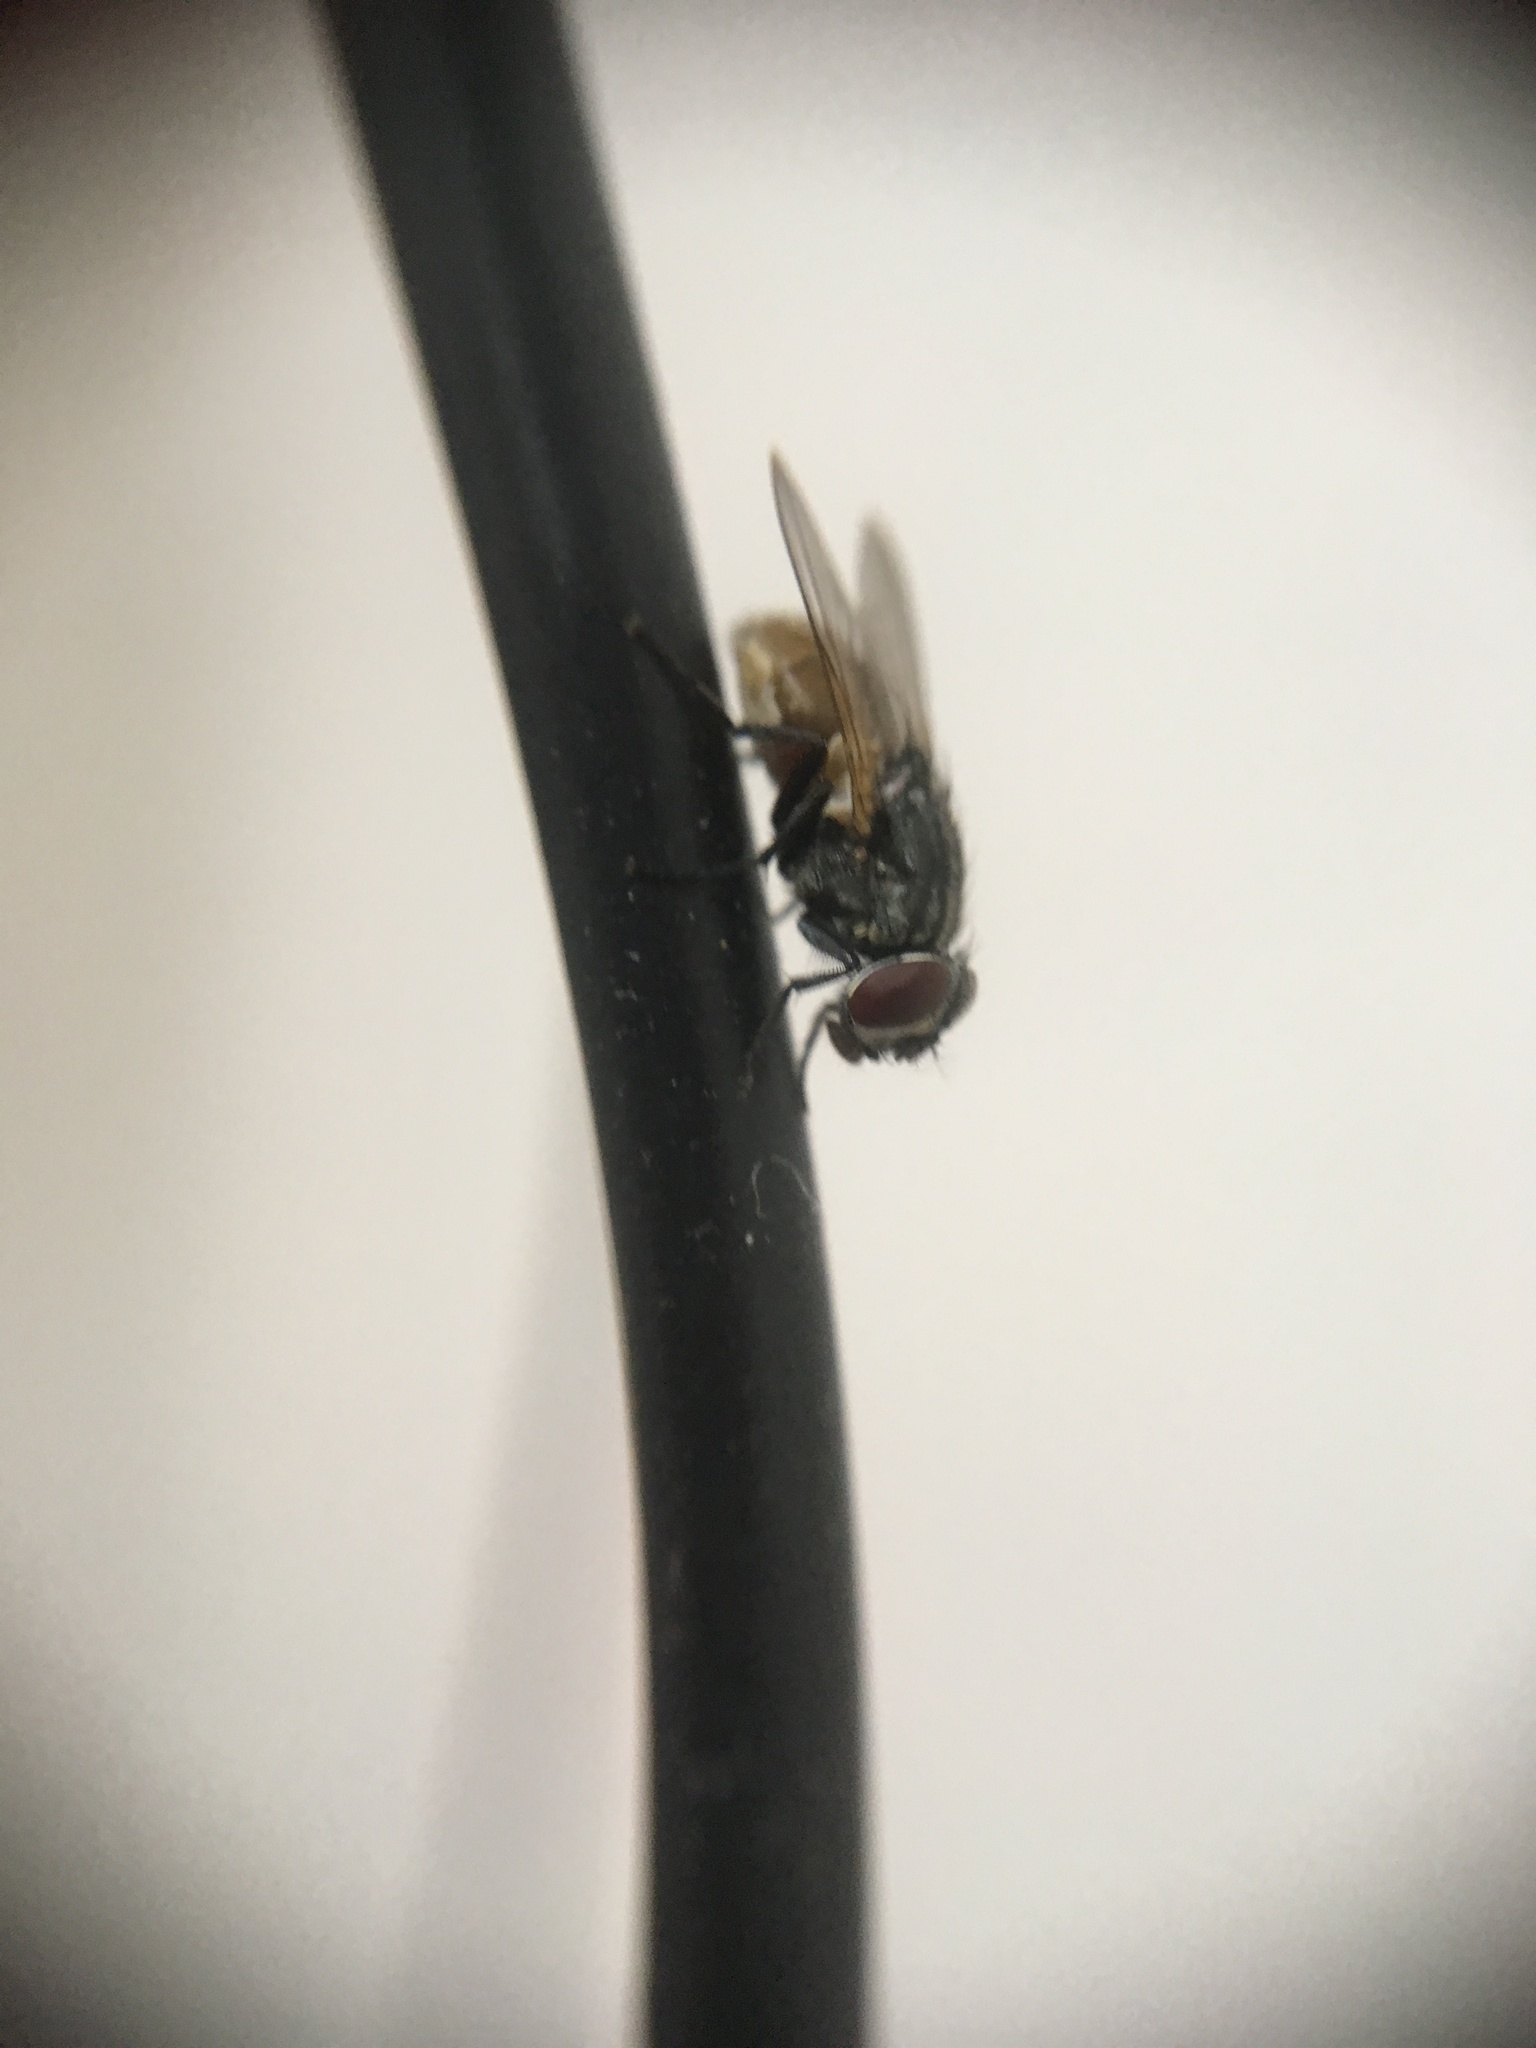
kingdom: Animalia
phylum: Arthropoda
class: Insecta
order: Diptera
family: Muscidae
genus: Musca
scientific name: Musca domestica
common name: House fly
